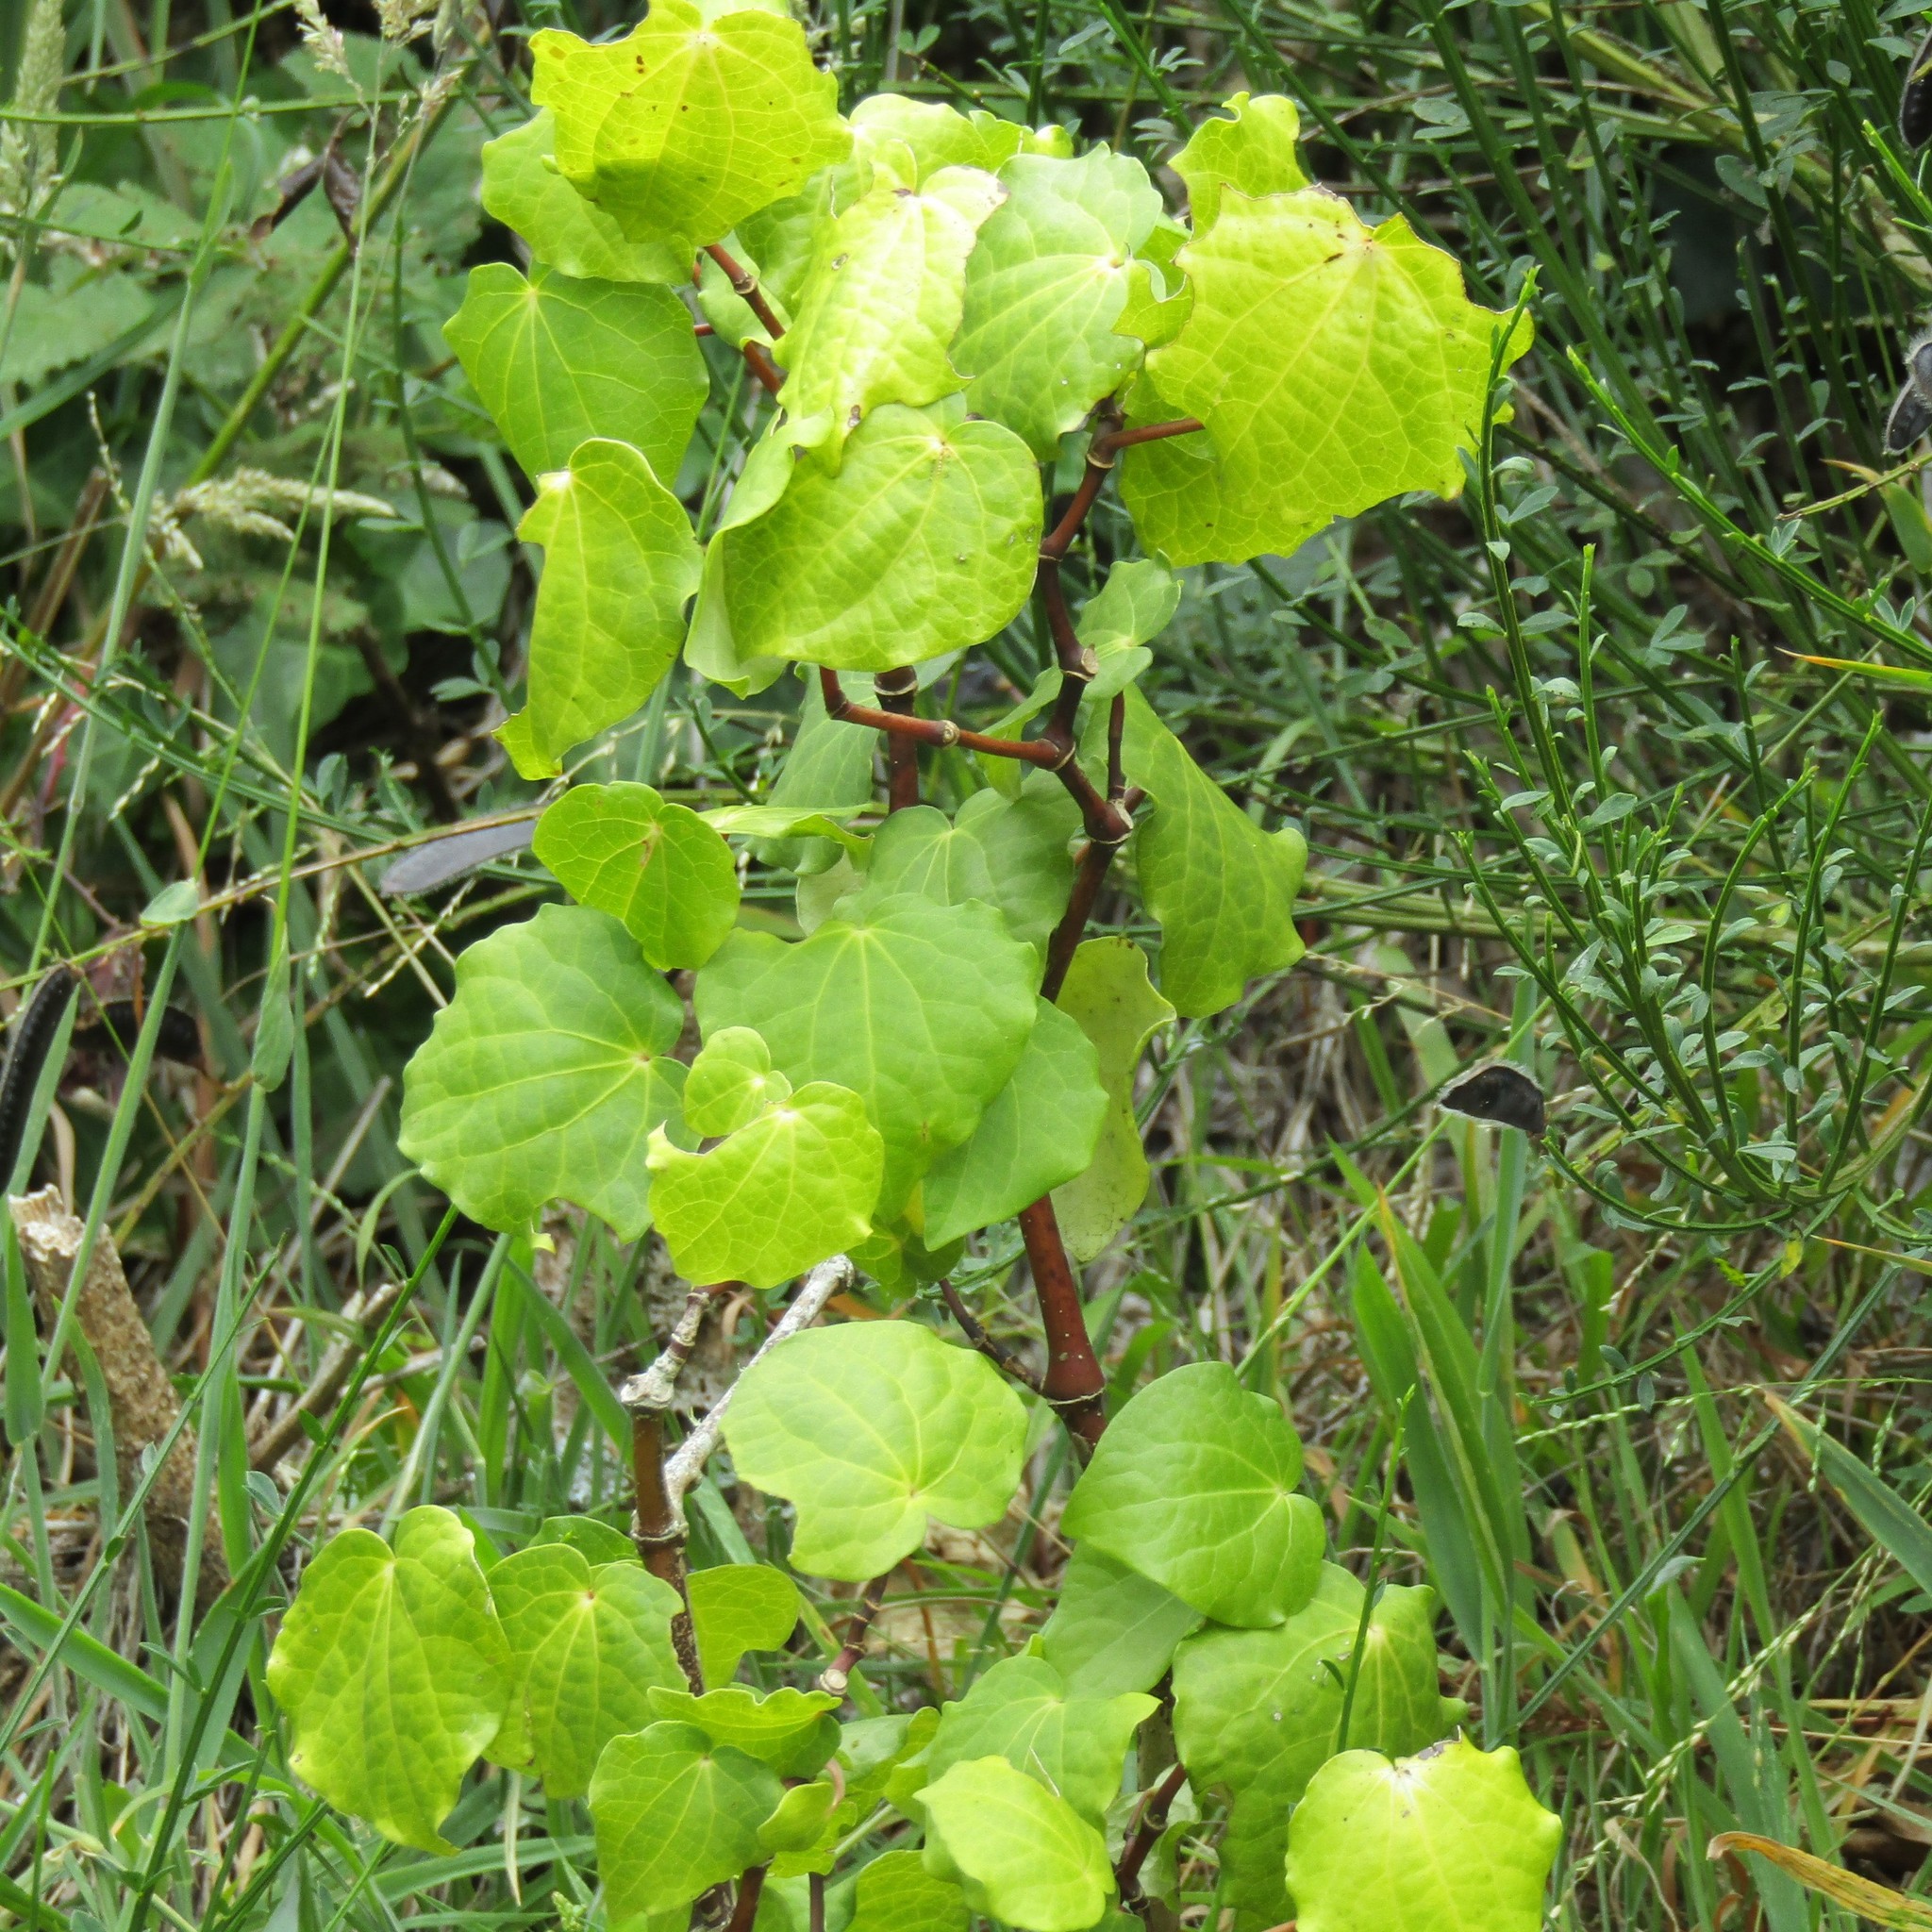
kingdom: Plantae
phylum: Tracheophyta
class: Magnoliopsida
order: Piperales
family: Piperaceae
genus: Macropiper
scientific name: Macropiper excelsum
